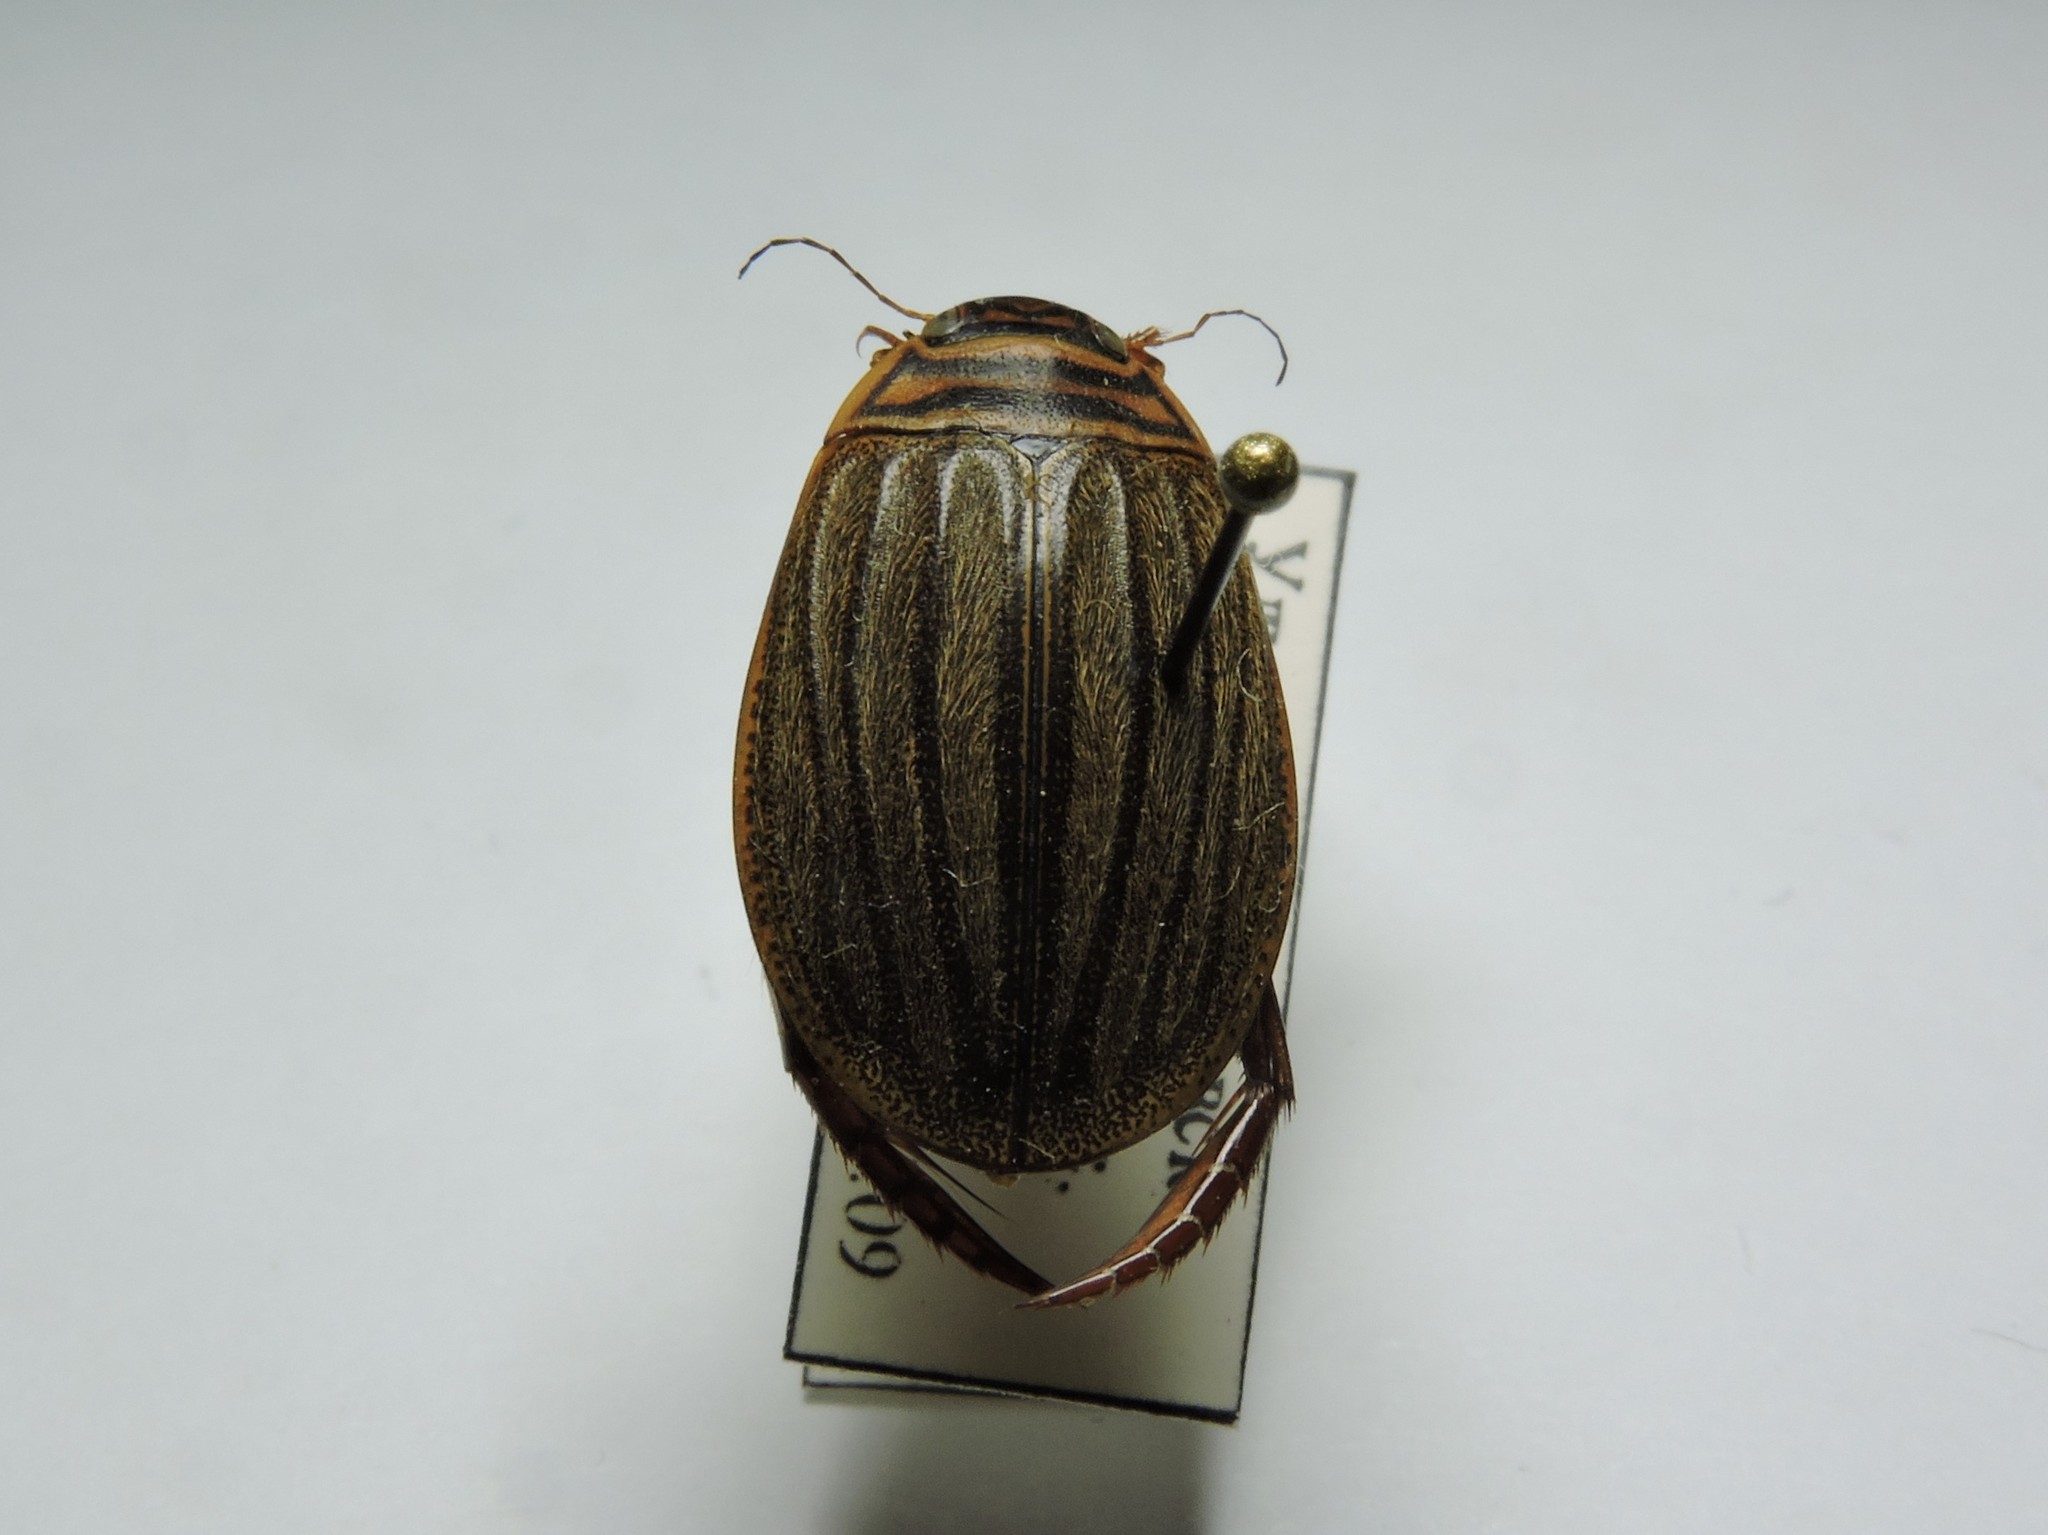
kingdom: Animalia
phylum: Arthropoda
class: Insecta
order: Coleoptera
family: Dytiscidae
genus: Acilius
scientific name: Acilius canaliculatus
